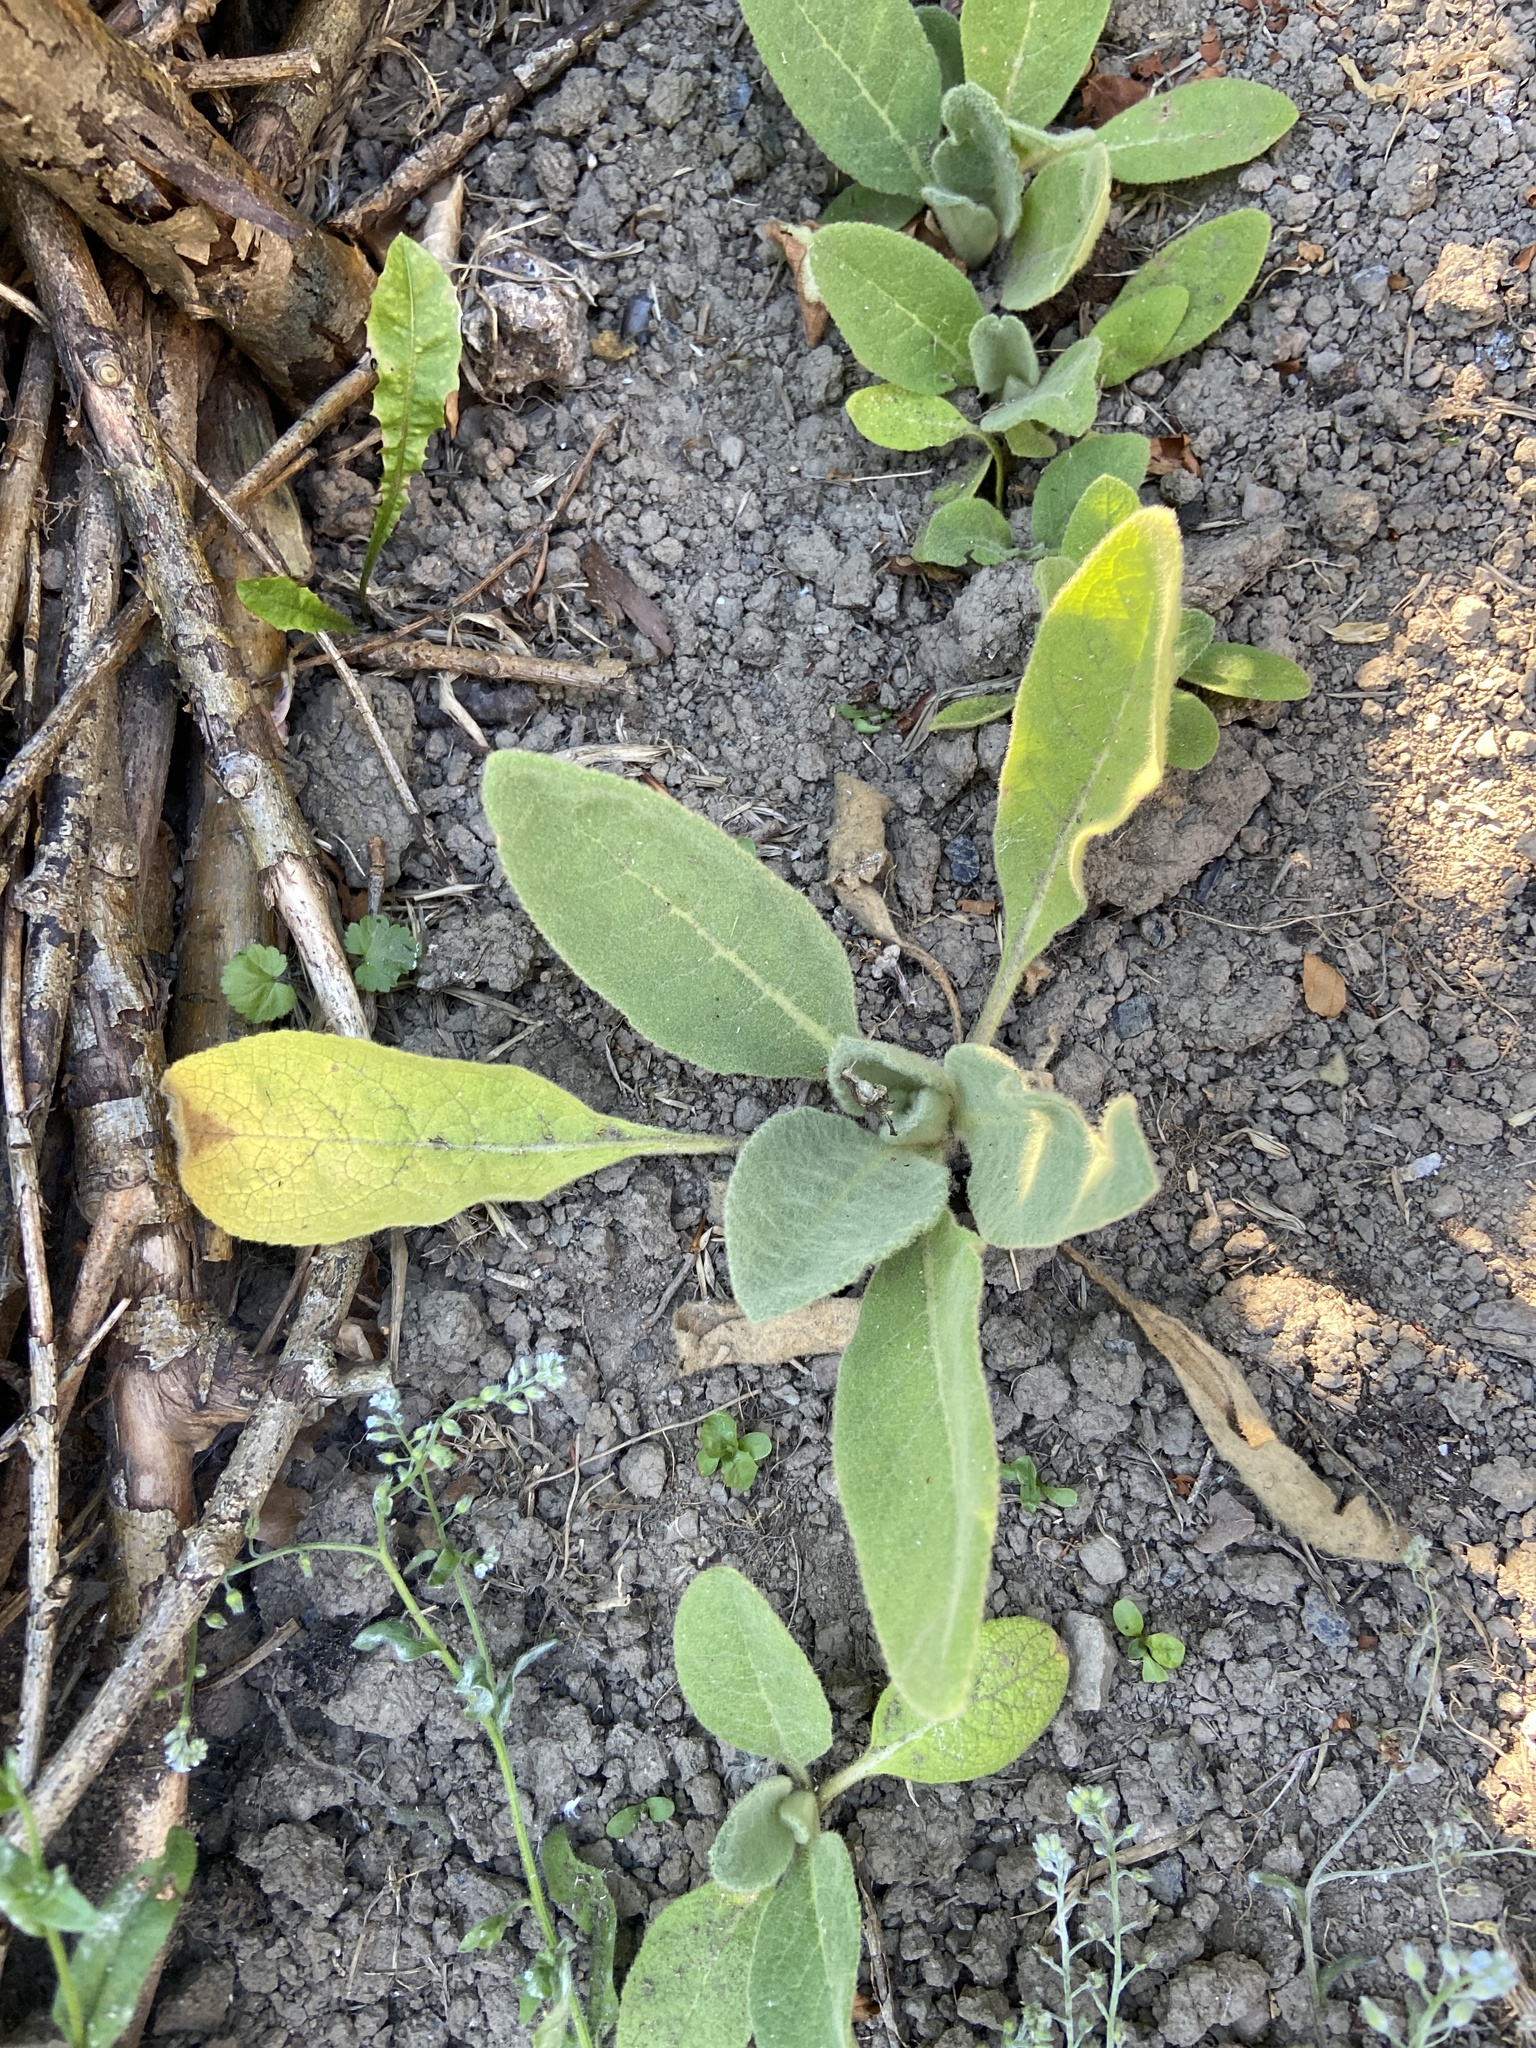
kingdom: Plantae
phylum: Tracheophyta
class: Magnoliopsida
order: Lamiales
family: Scrophulariaceae
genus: Verbascum
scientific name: Verbascum thapsus
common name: Common mullein
